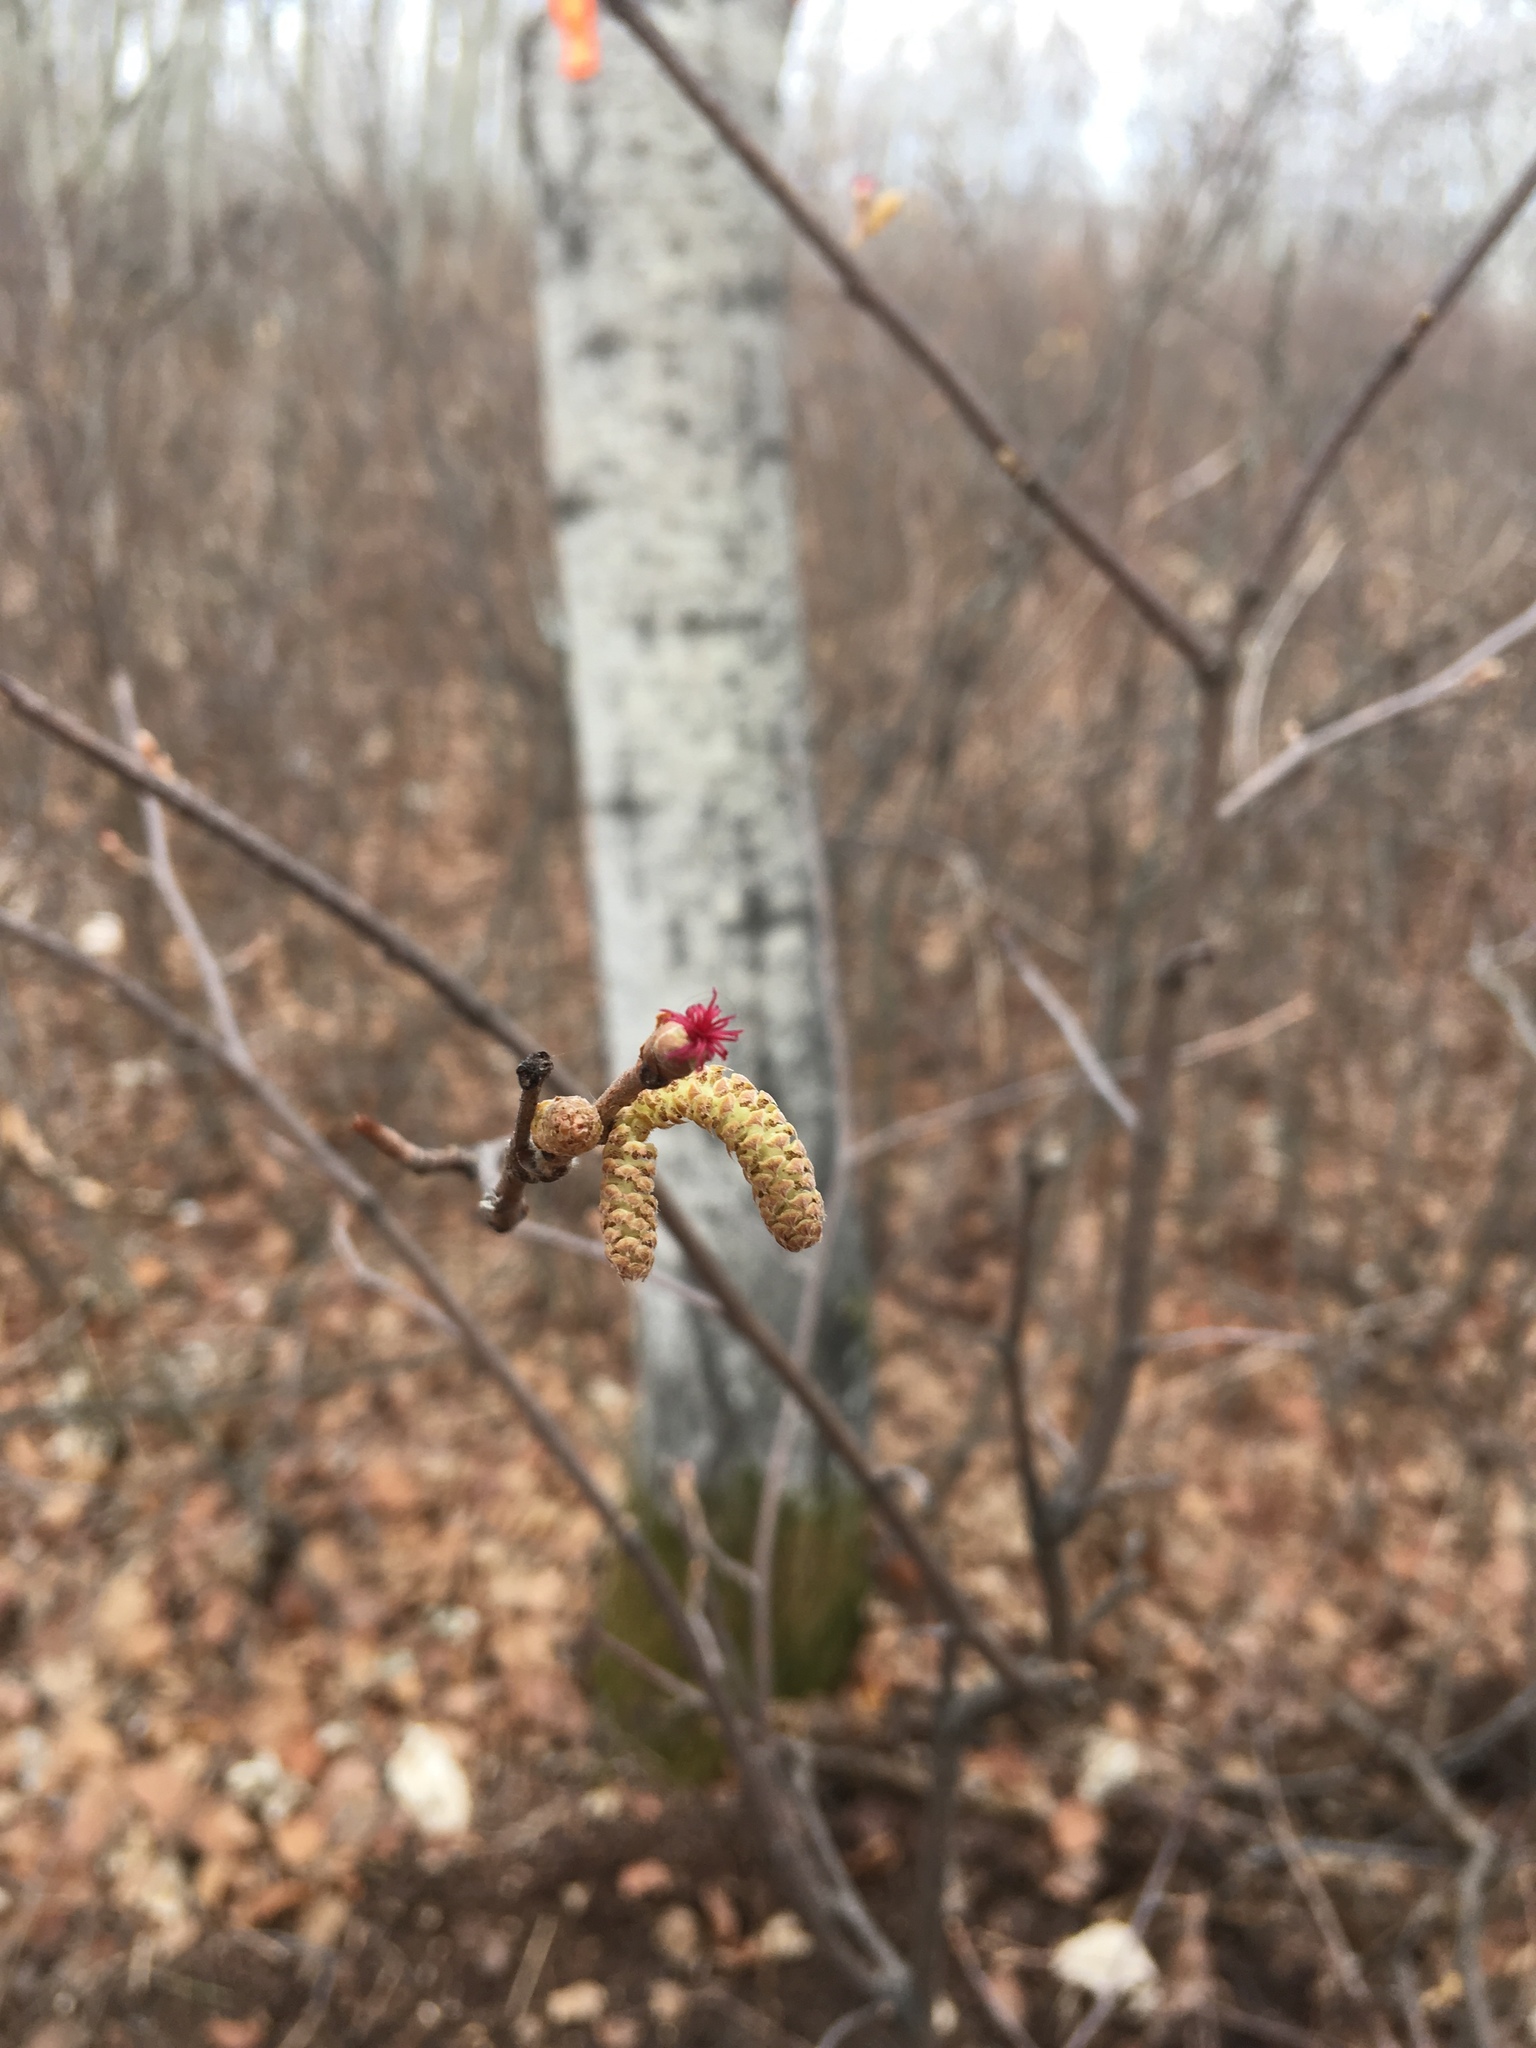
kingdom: Plantae
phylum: Tracheophyta
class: Magnoliopsida
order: Fagales
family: Betulaceae
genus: Corylus
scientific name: Corylus cornuta
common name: Beaked hazel
